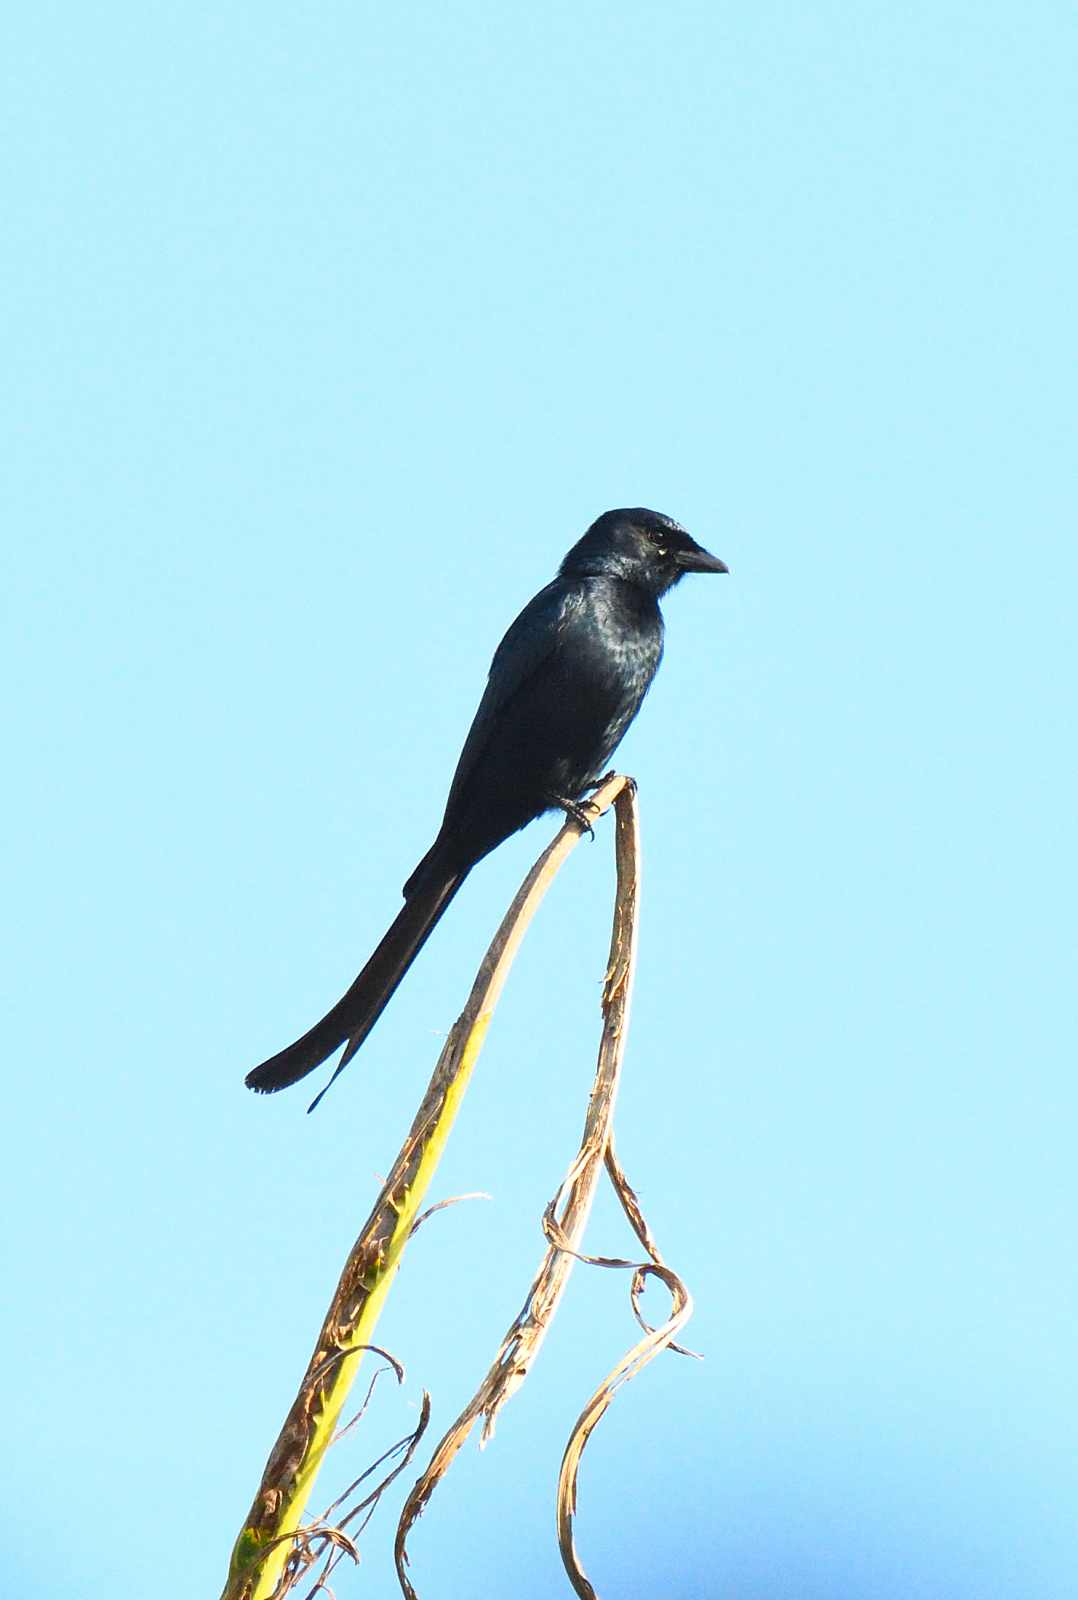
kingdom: Animalia
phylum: Chordata
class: Aves
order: Passeriformes
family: Dicruridae
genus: Dicrurus
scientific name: Dicrurus macrocercus
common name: Black drongo
